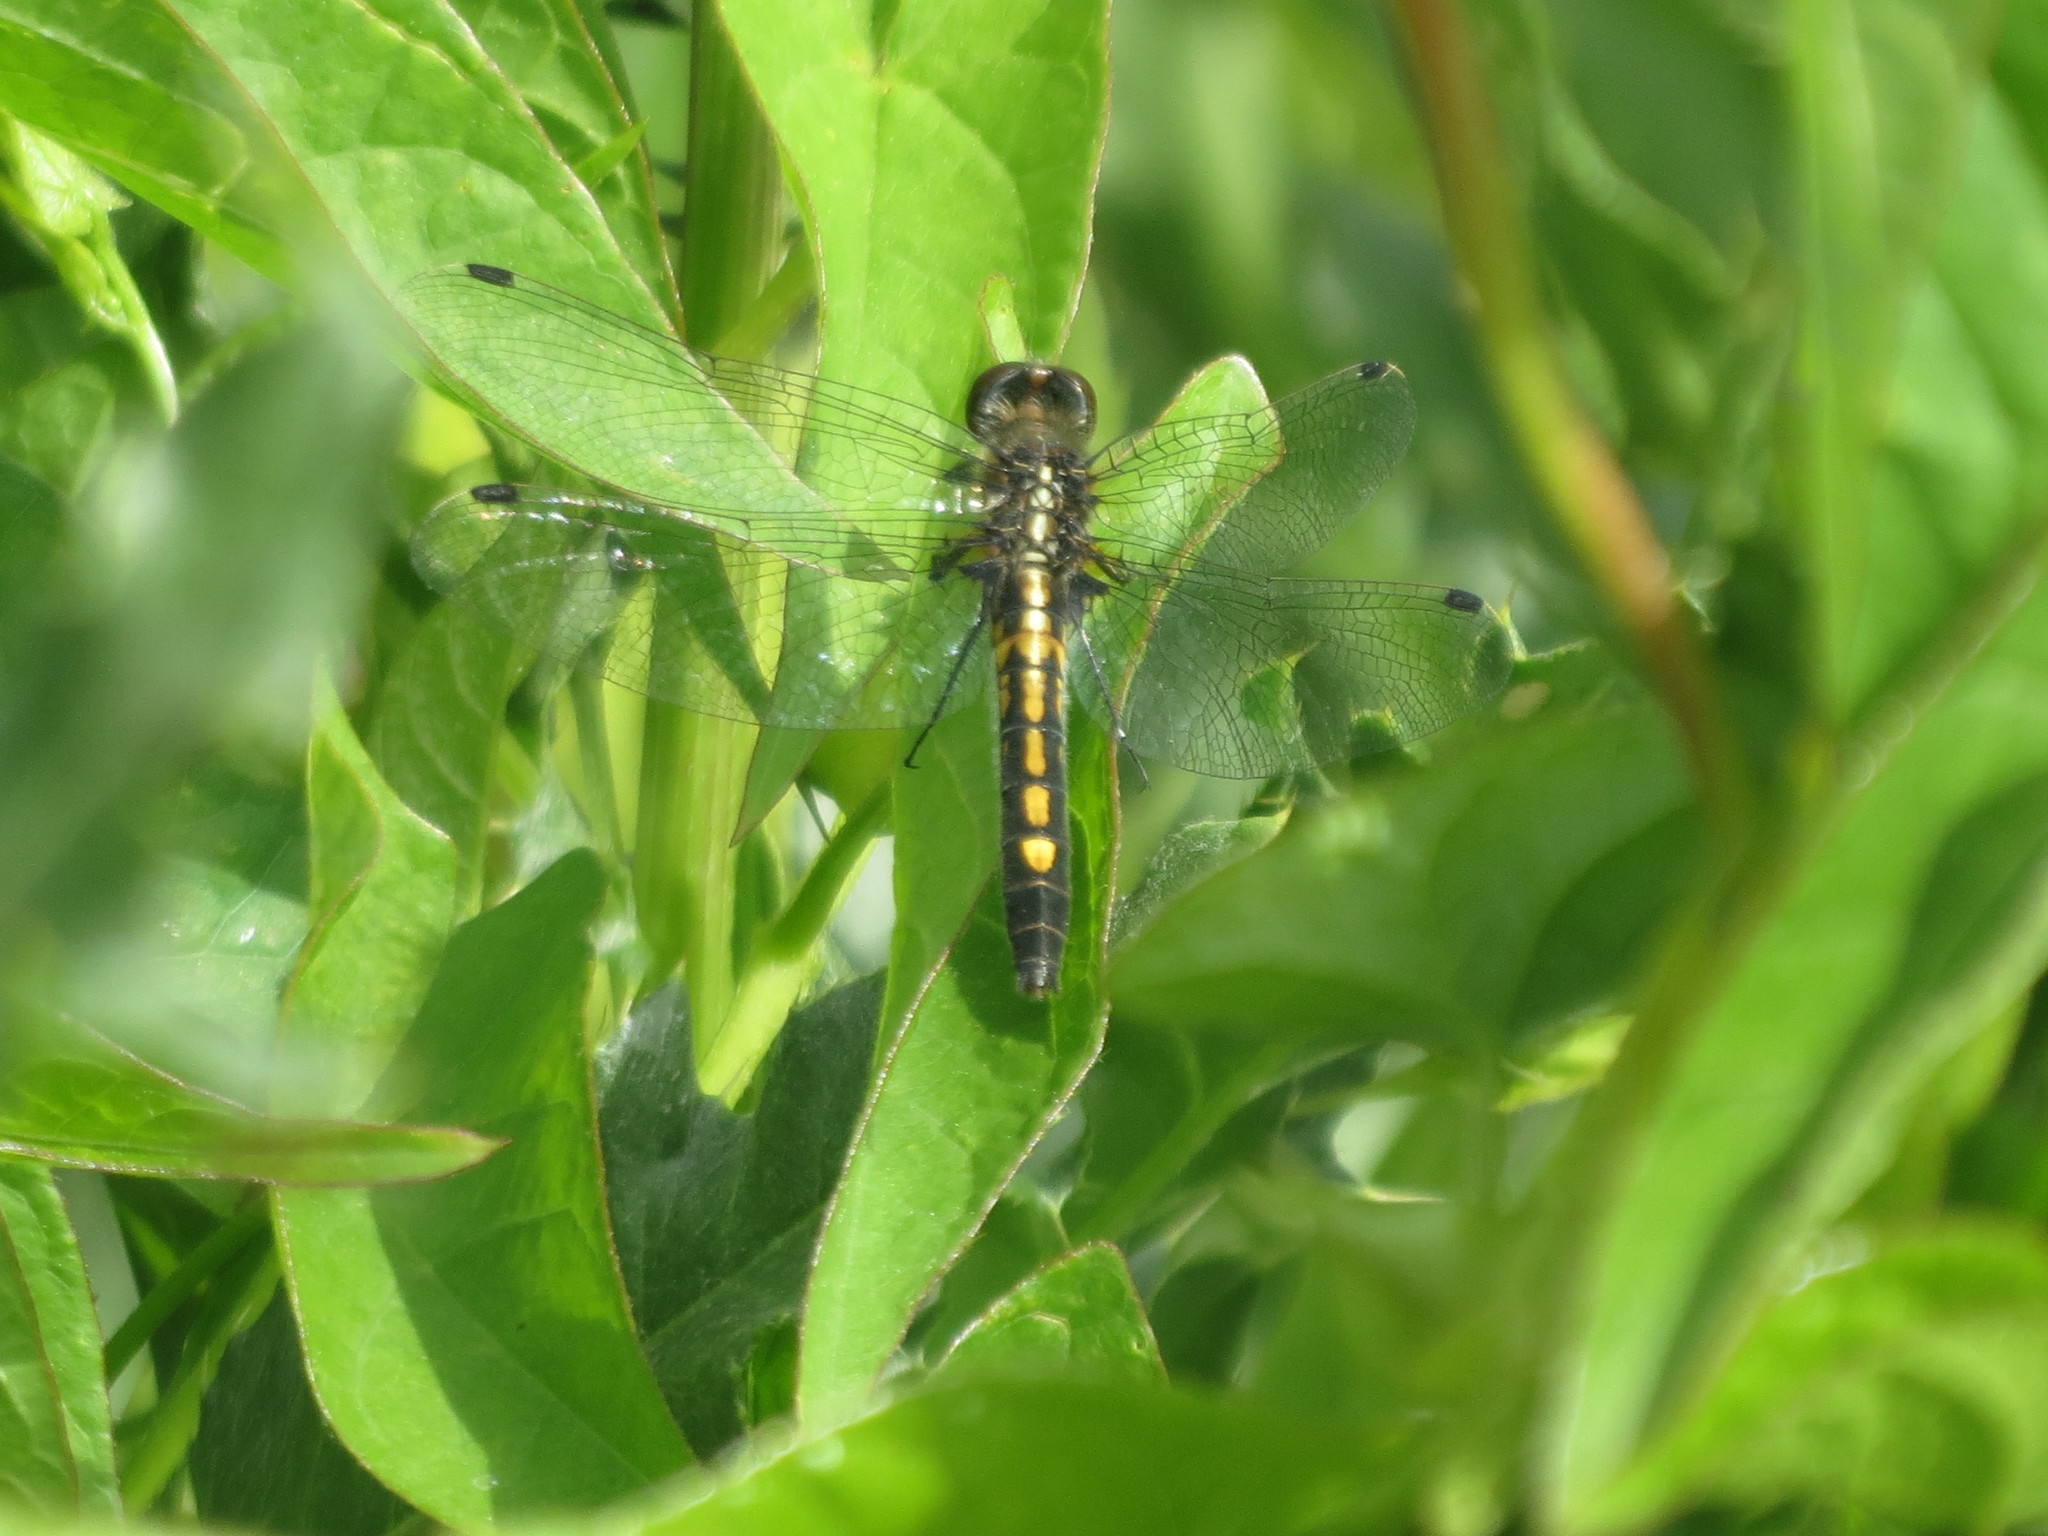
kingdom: Animalia
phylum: Arthropoda
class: Insecta
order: Odonata
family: Libellulidae
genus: Leucorrhinia
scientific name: Leucorrhinia intacta
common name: Dot-tailed whiteface
